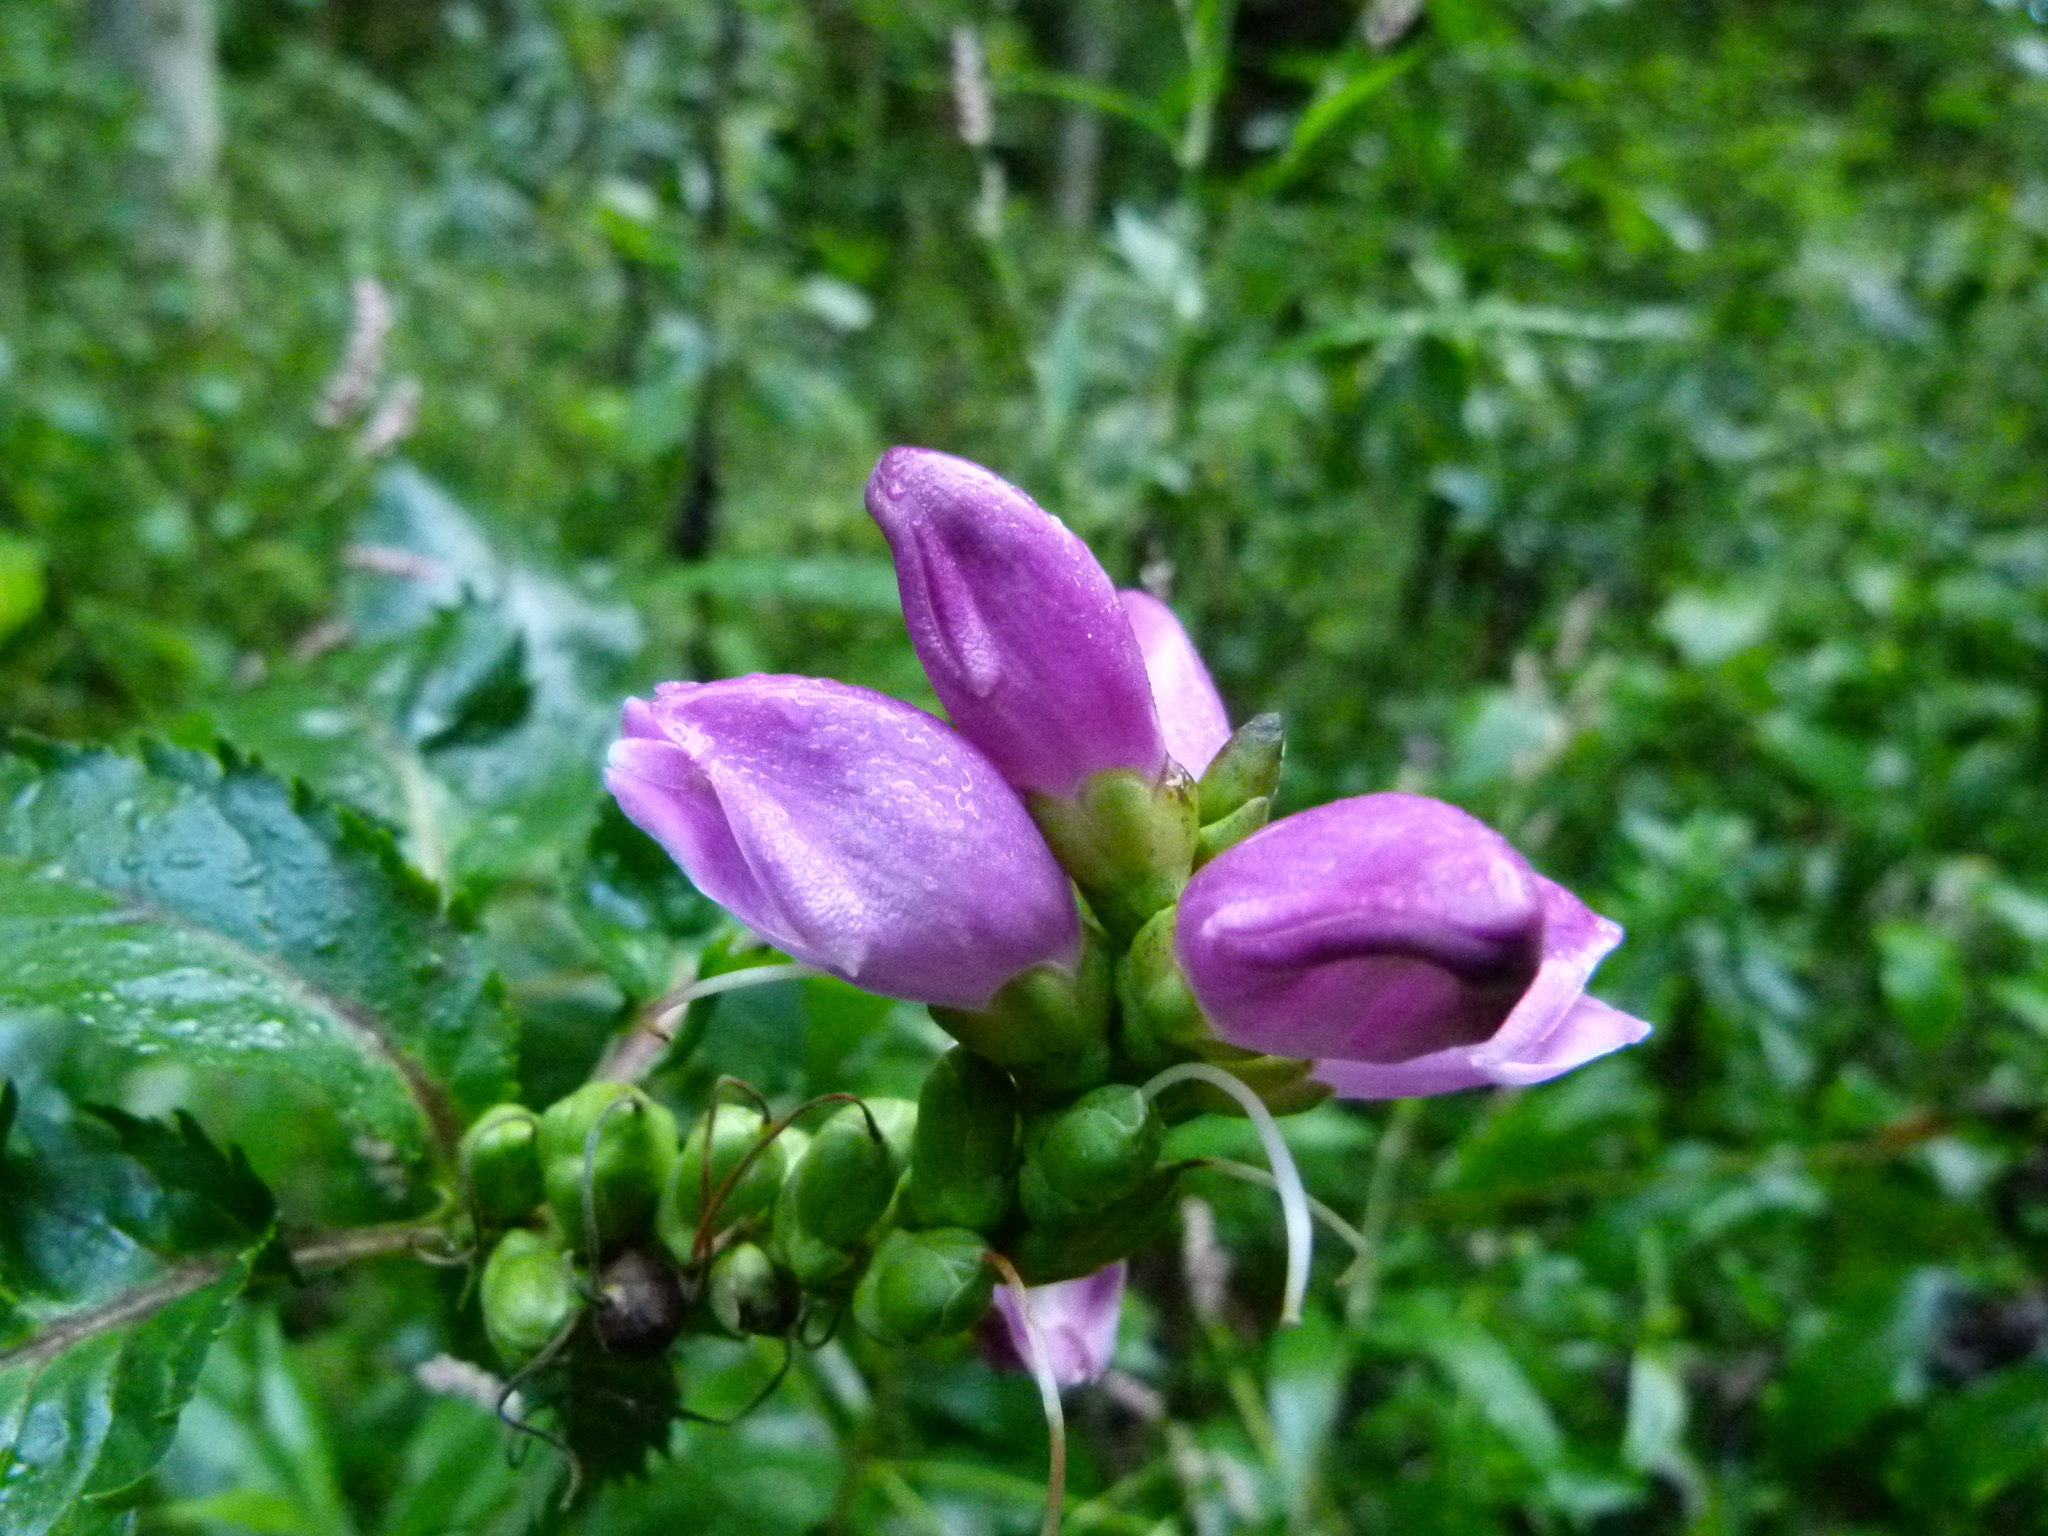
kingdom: Plantae
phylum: Tracheophyta
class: Magnoliopsida
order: Lamiales
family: Plantaginaceae
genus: Chelone
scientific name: Chelone lyonii
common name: Pink turtlehead
